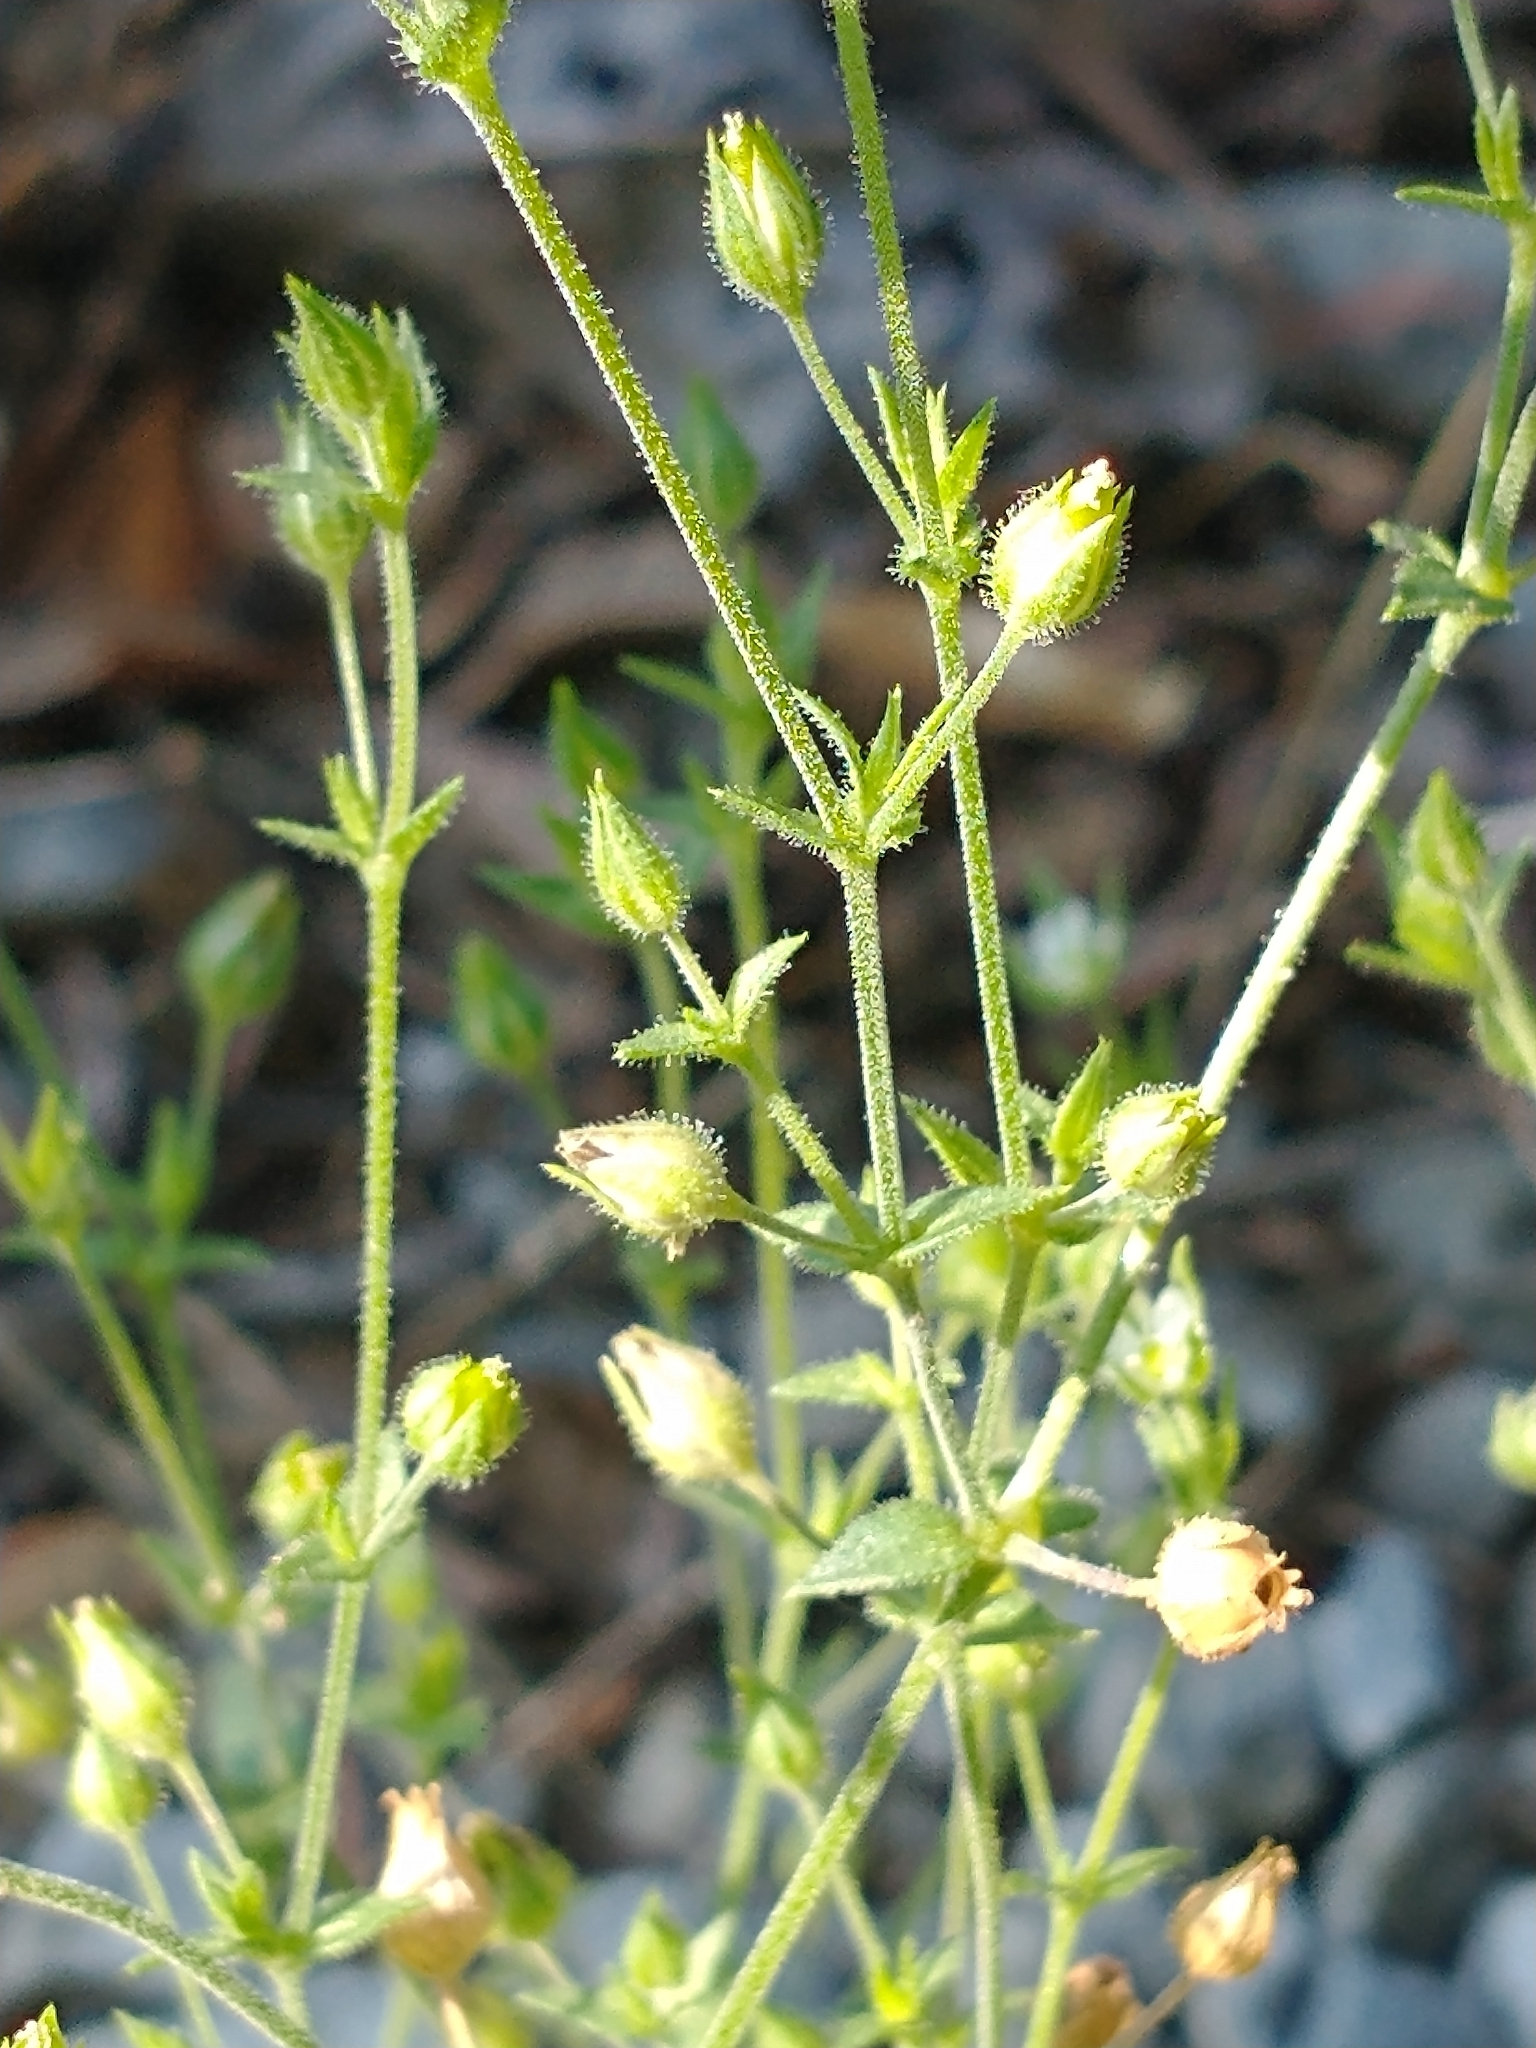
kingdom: Plantae
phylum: Tracheophyta
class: Magnoliopsida
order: Caryophyllales
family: Caryophyllaceae
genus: Arenaria
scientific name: Arenaria serpyllifolia
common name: Thyme-leaved sandwort
